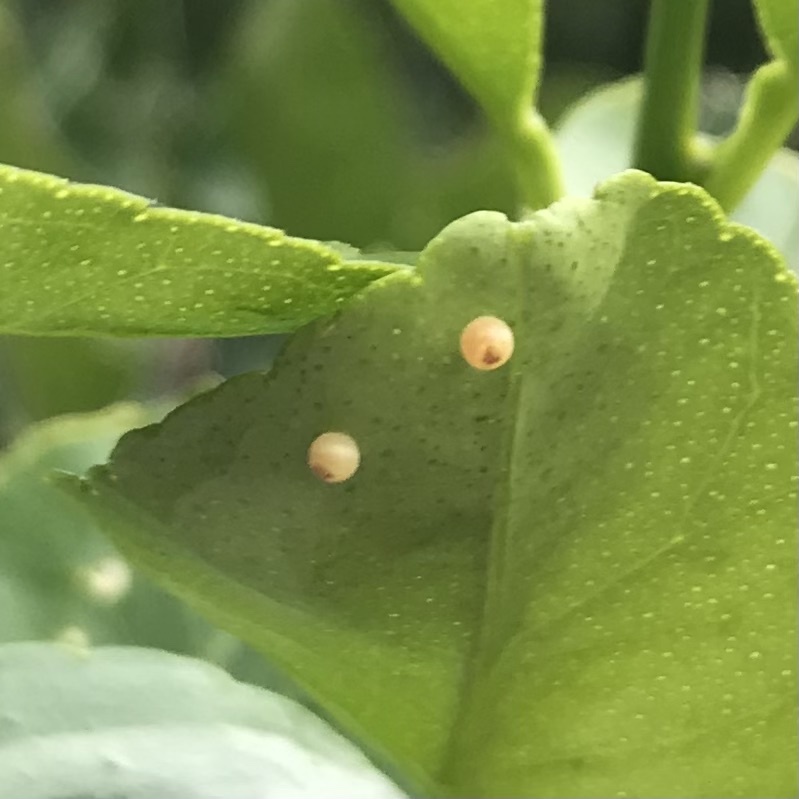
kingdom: Animalia
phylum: Arthropoda
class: Insecta
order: Lepidoptera
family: Papilionidae
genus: Papilio
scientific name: Papilio anactus
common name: Dingy swallowtail
